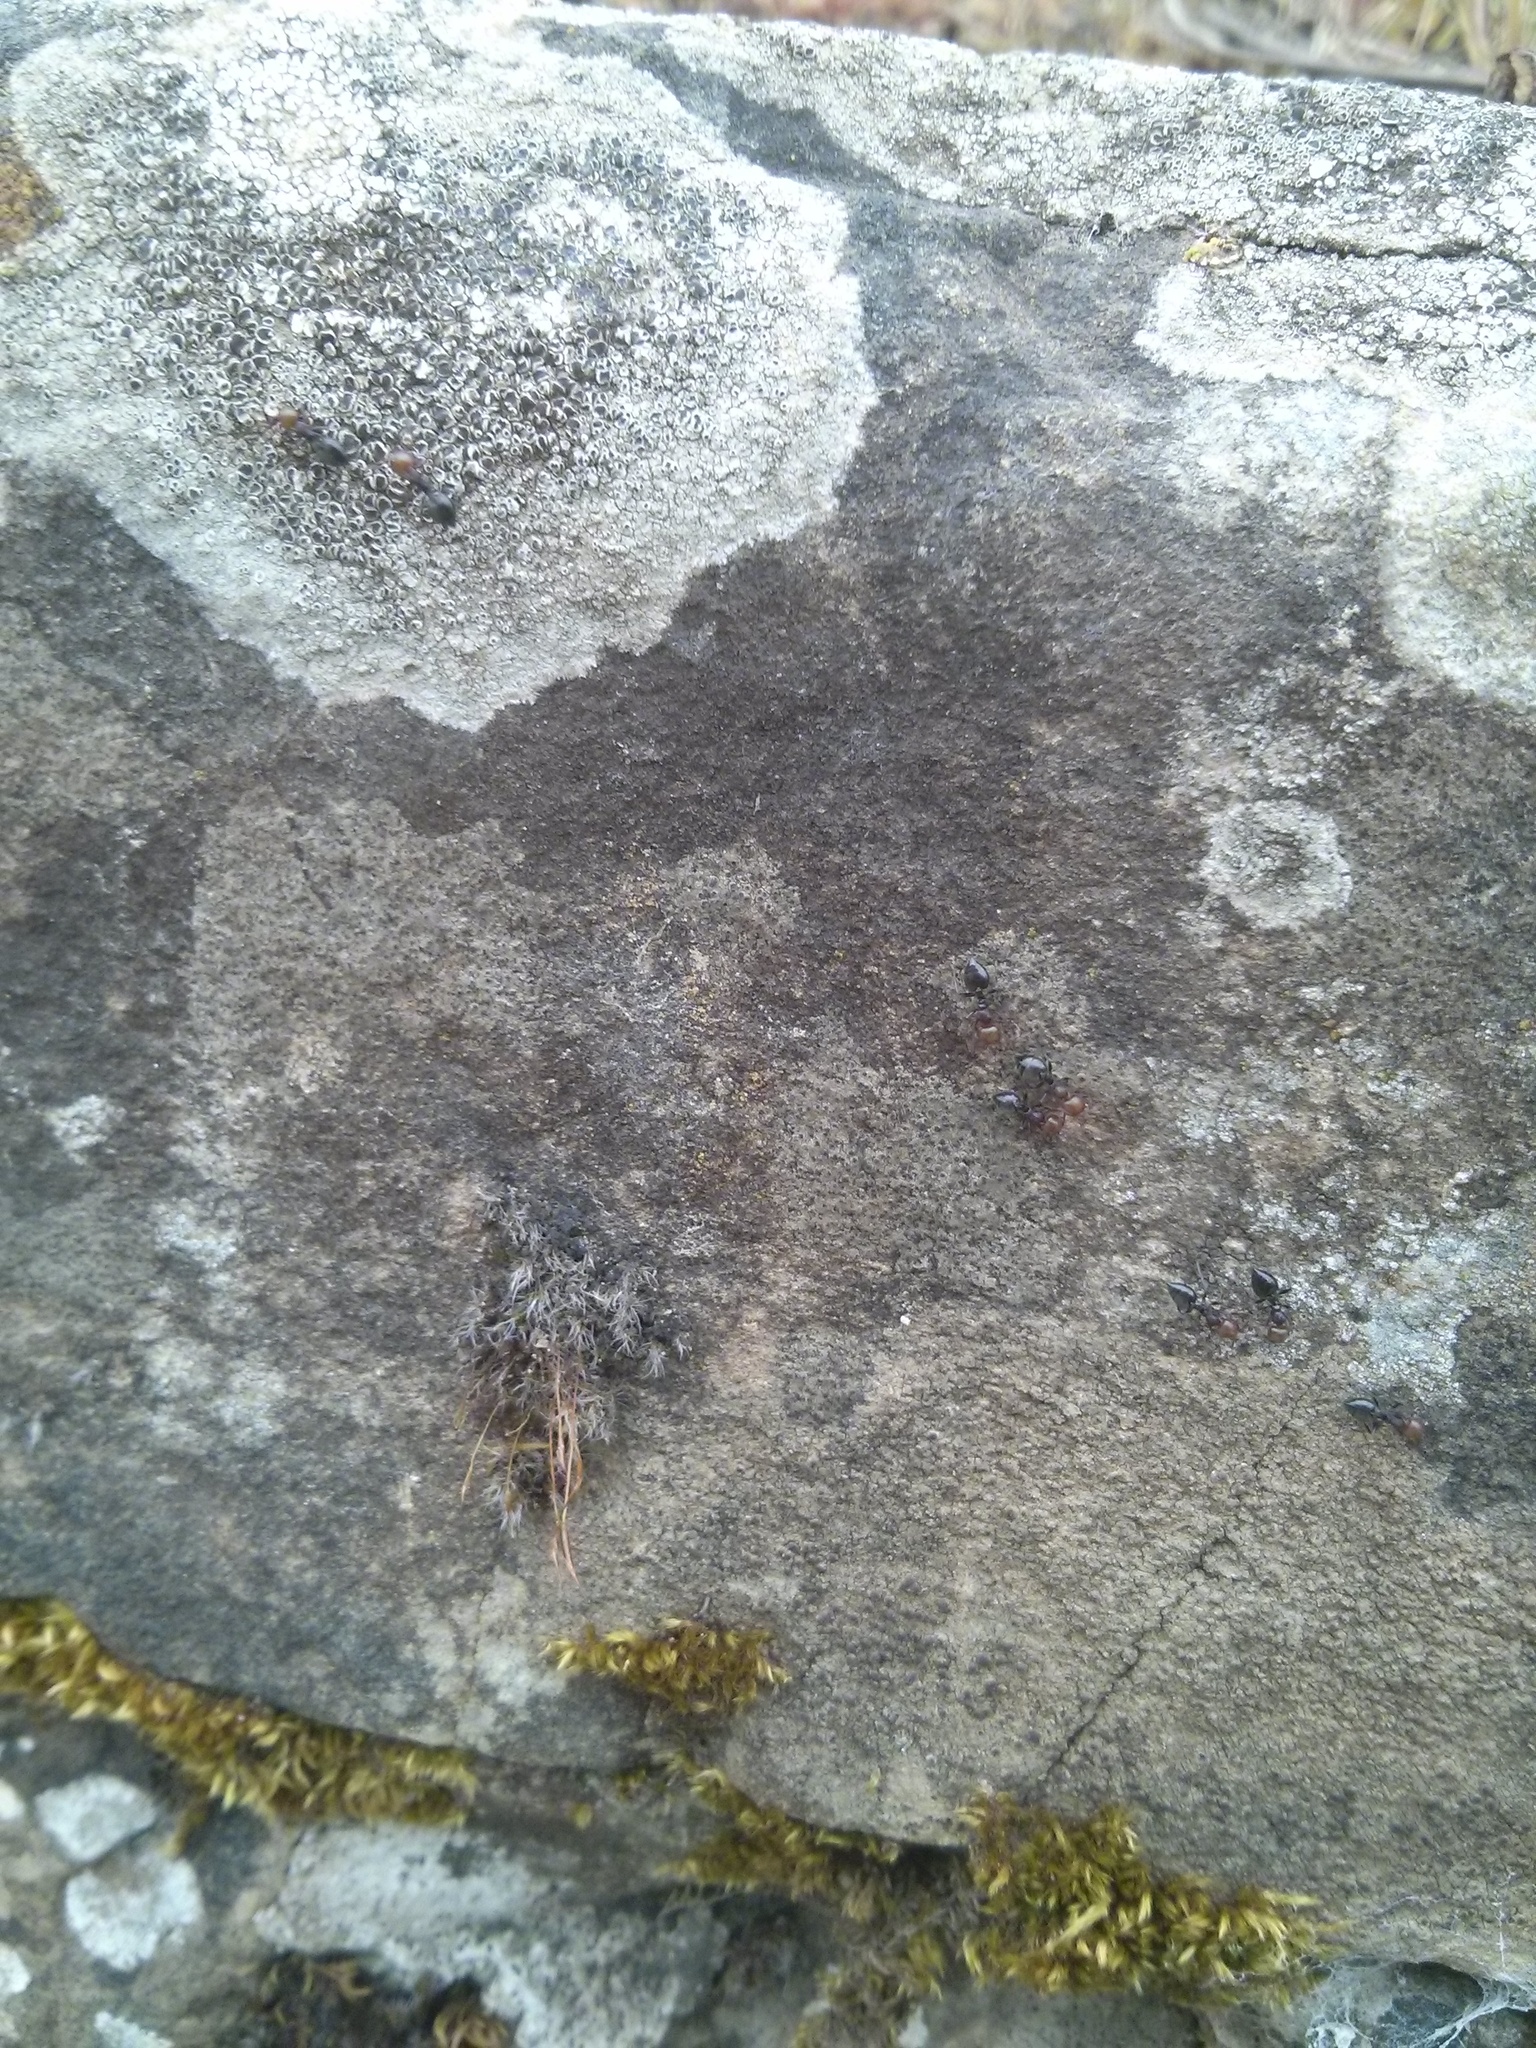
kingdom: Animalia
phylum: Arthropoda
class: Insecta
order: Hymenoptera
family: Formicidae
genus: Crematogaster
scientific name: Crematogaster scutellaris
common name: Fourmi du liège
